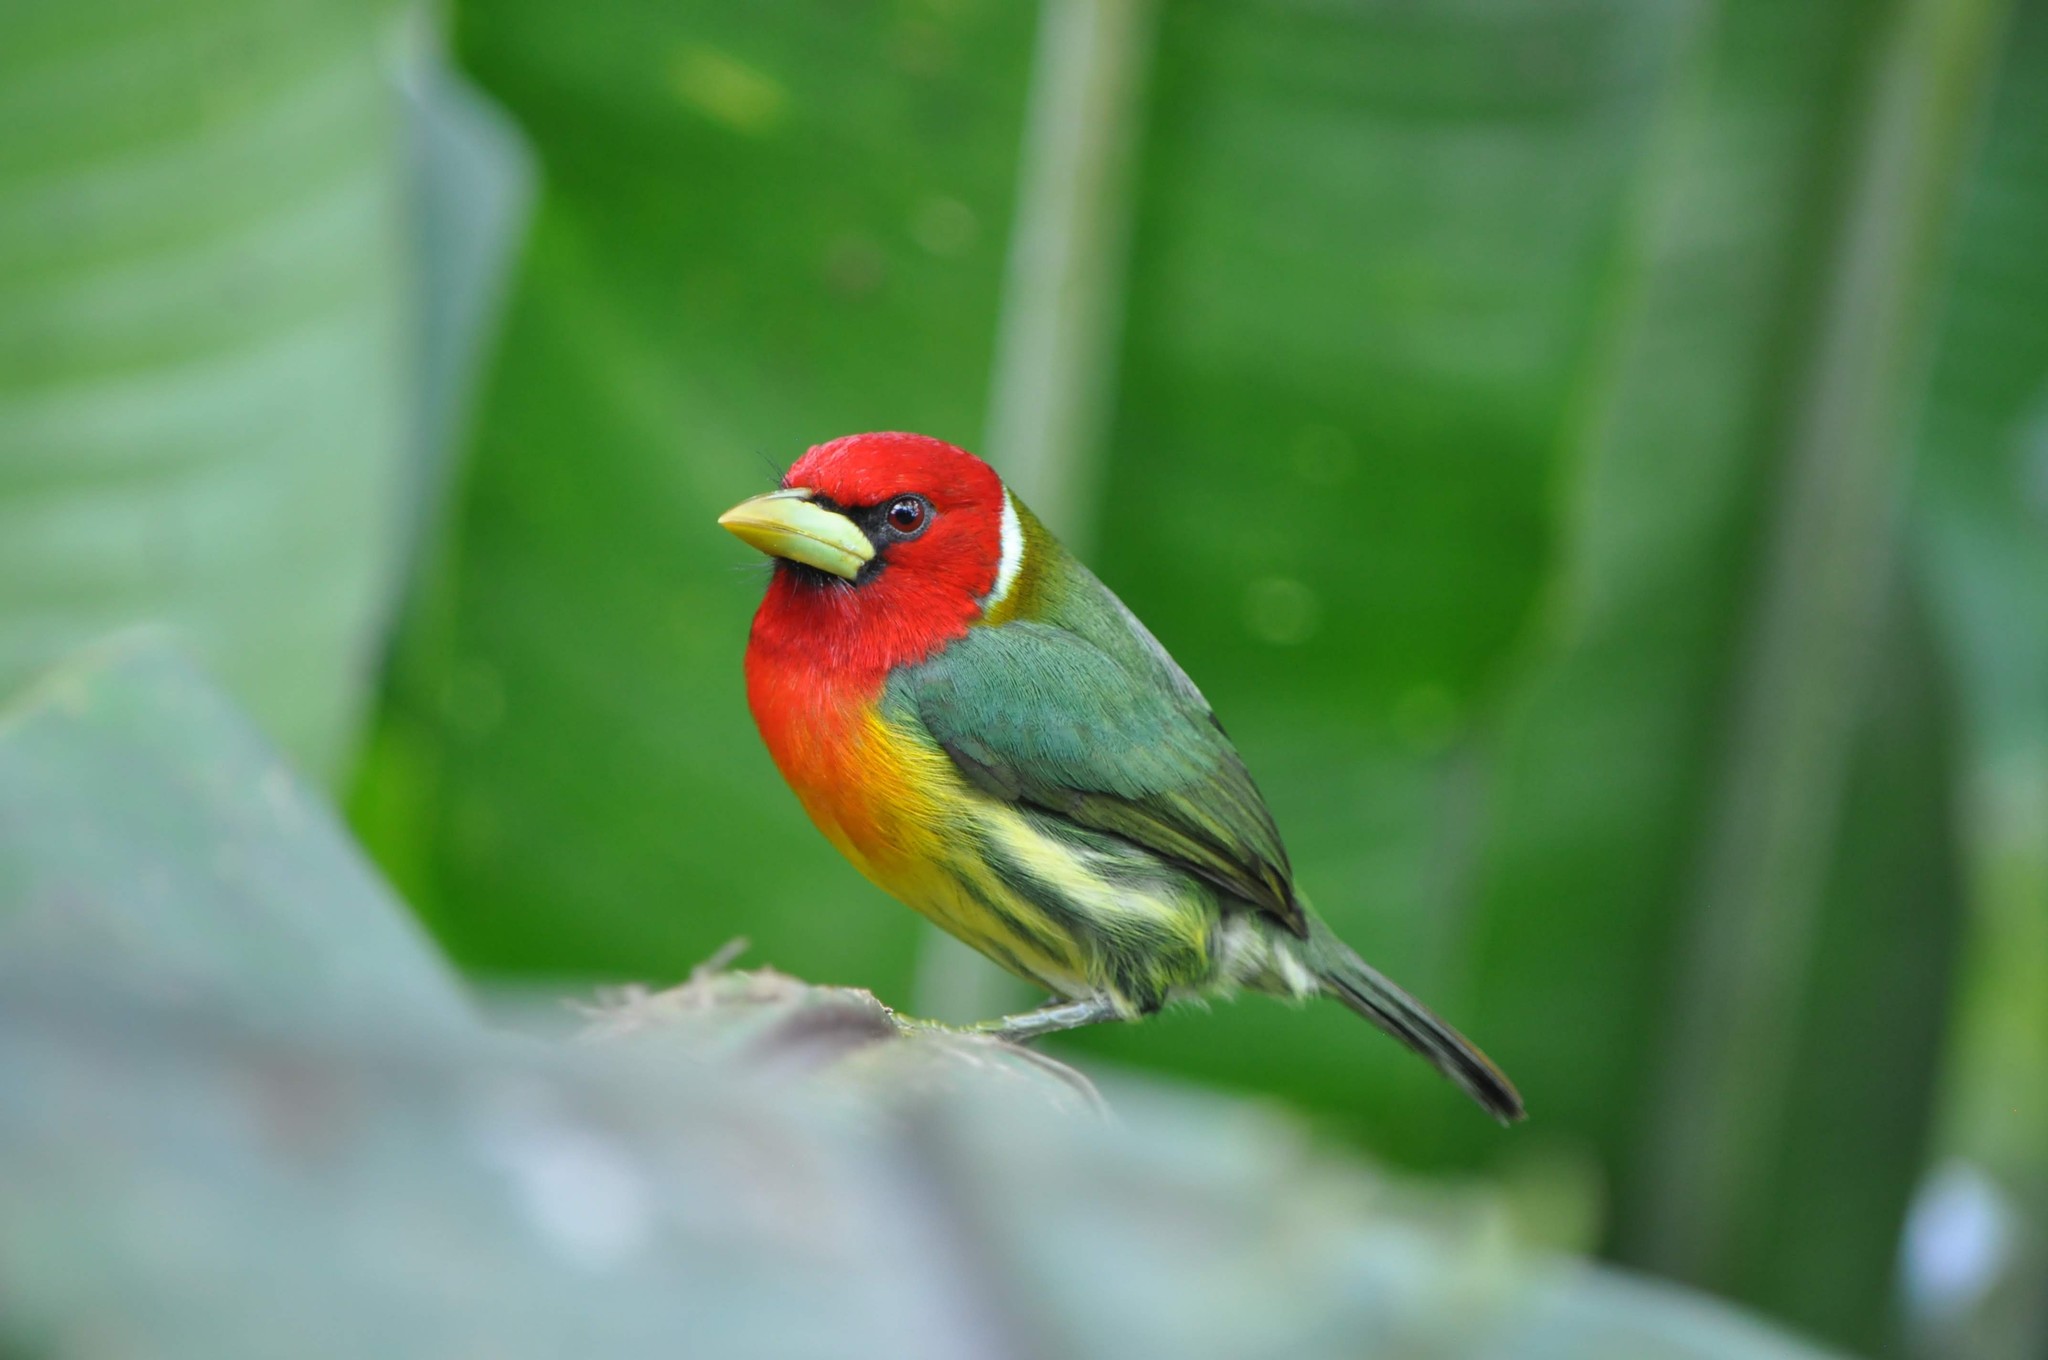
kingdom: Animalia
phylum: Chordata
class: Aves
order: Piciformes
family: Capitonidae
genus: Eubucco
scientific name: Eubucco bourcierii
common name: Red-headed barbet
